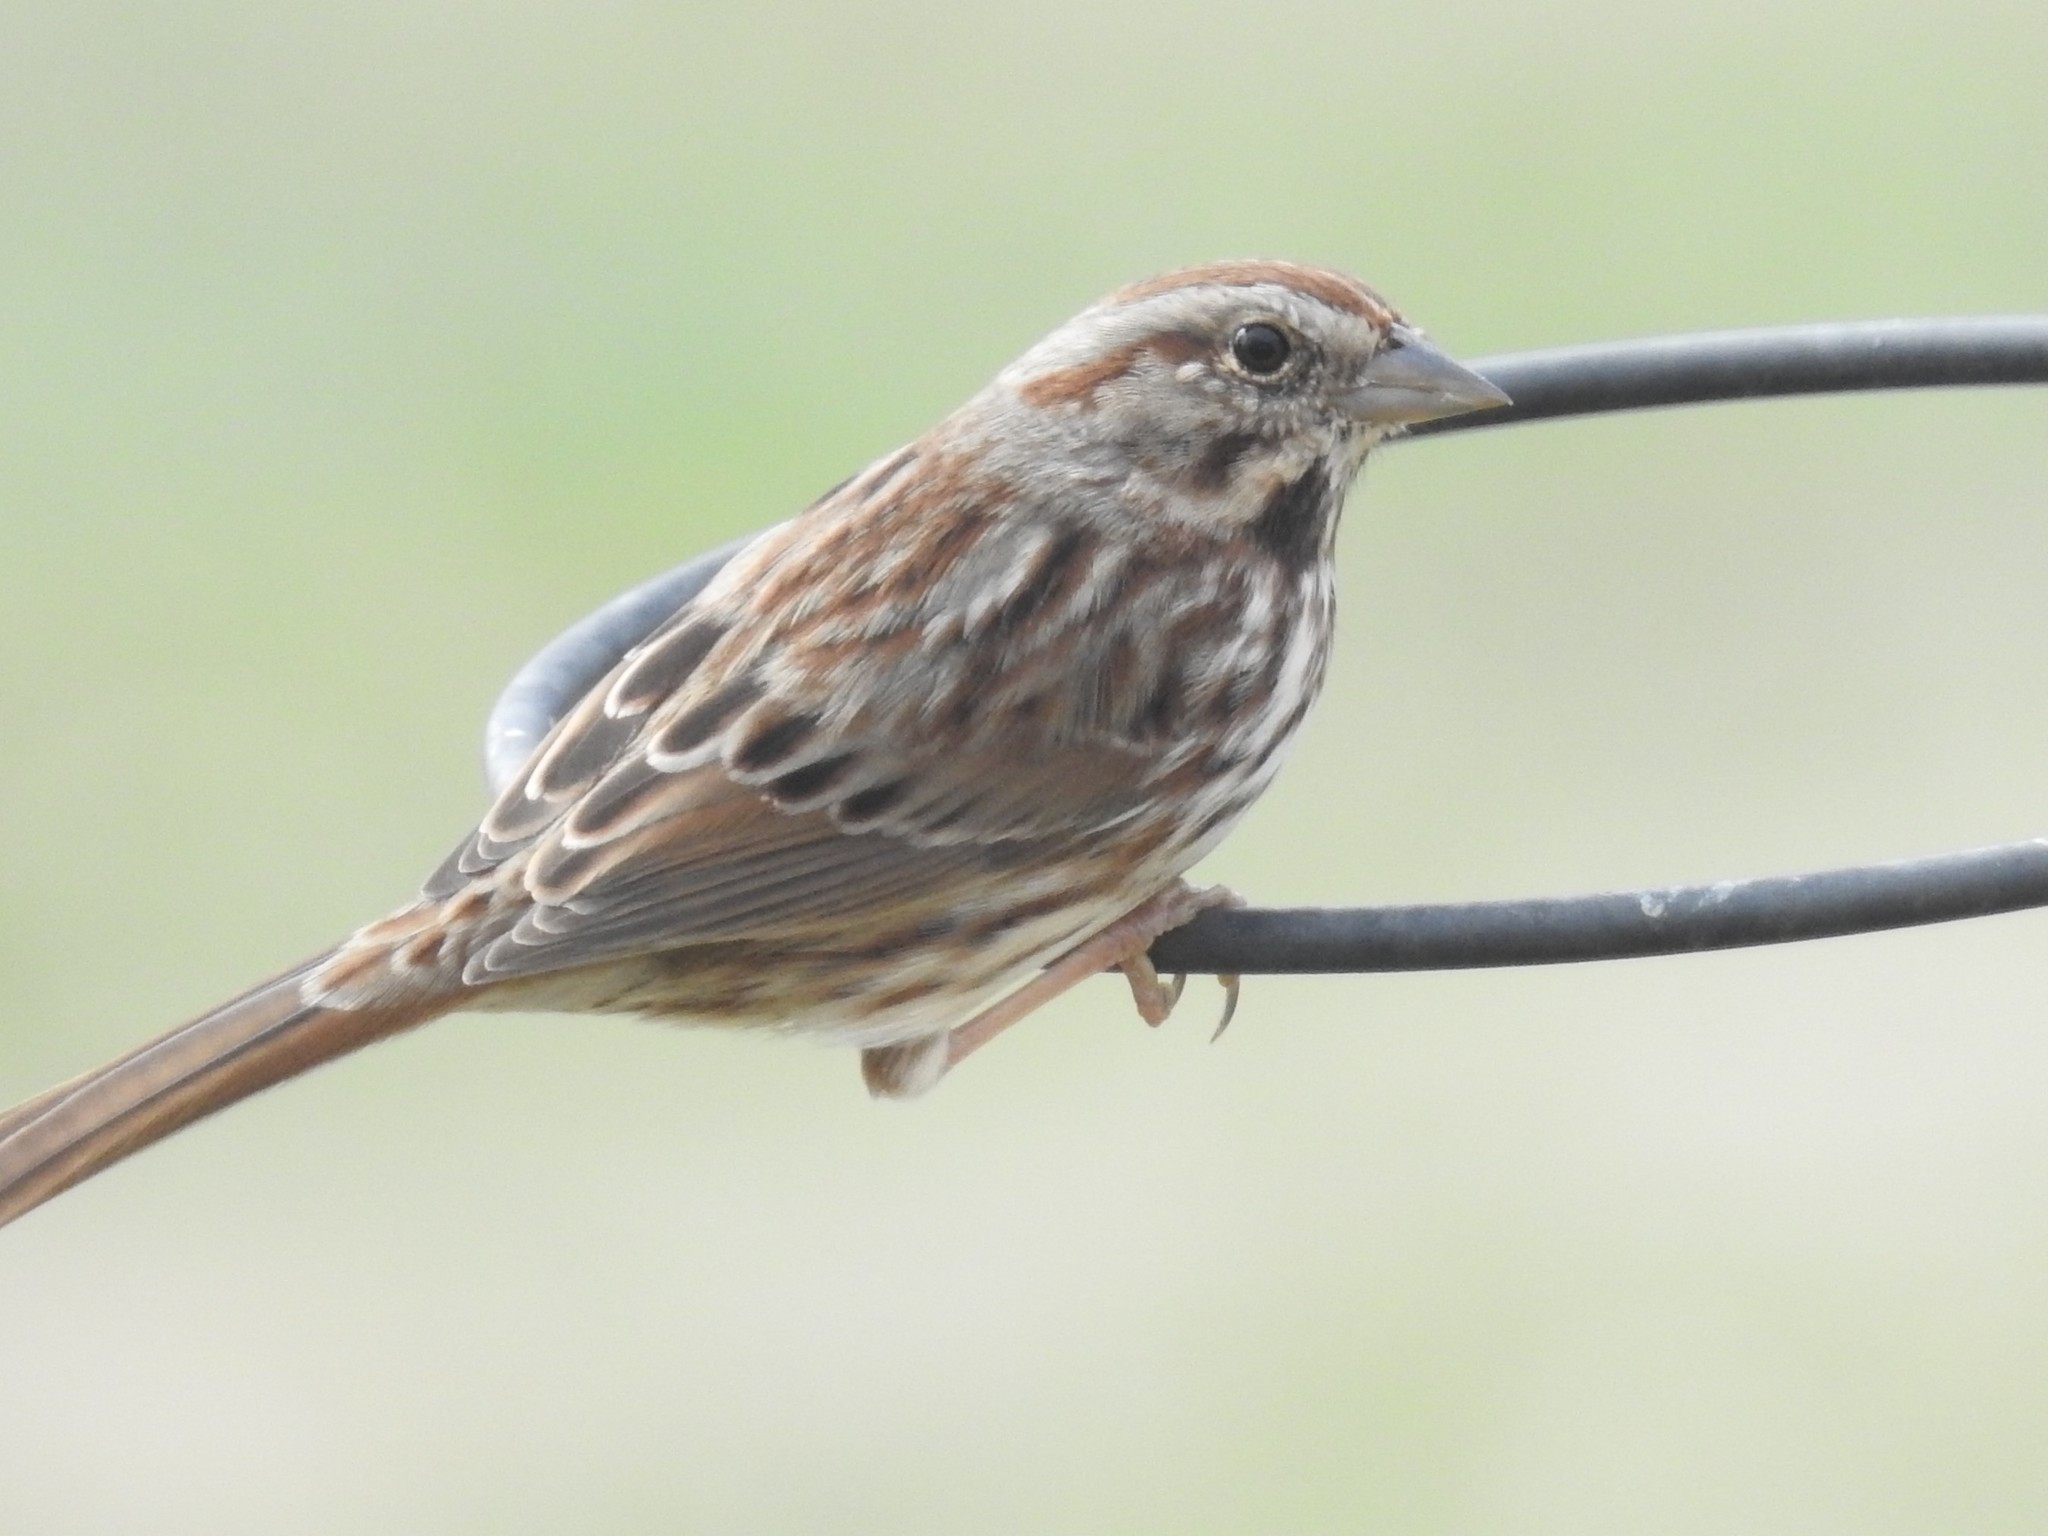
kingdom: Animalia
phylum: Chordata
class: Aves
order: Passeriformes
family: Passerellidae
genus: Melospiza
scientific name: Melospiza melodia
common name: Song sparrow
